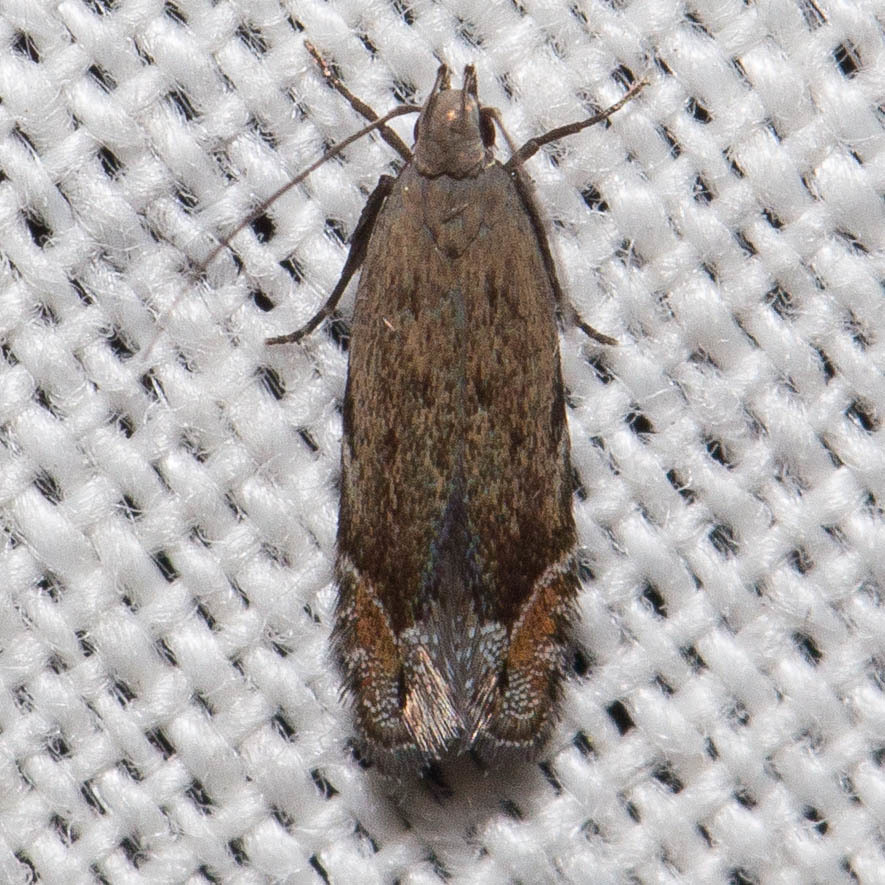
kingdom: Animalia
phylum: Arthropoda
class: Insecta
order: Lepidoptera
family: Gelechiidae
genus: Battaristis
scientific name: Battaristis concinnusella
